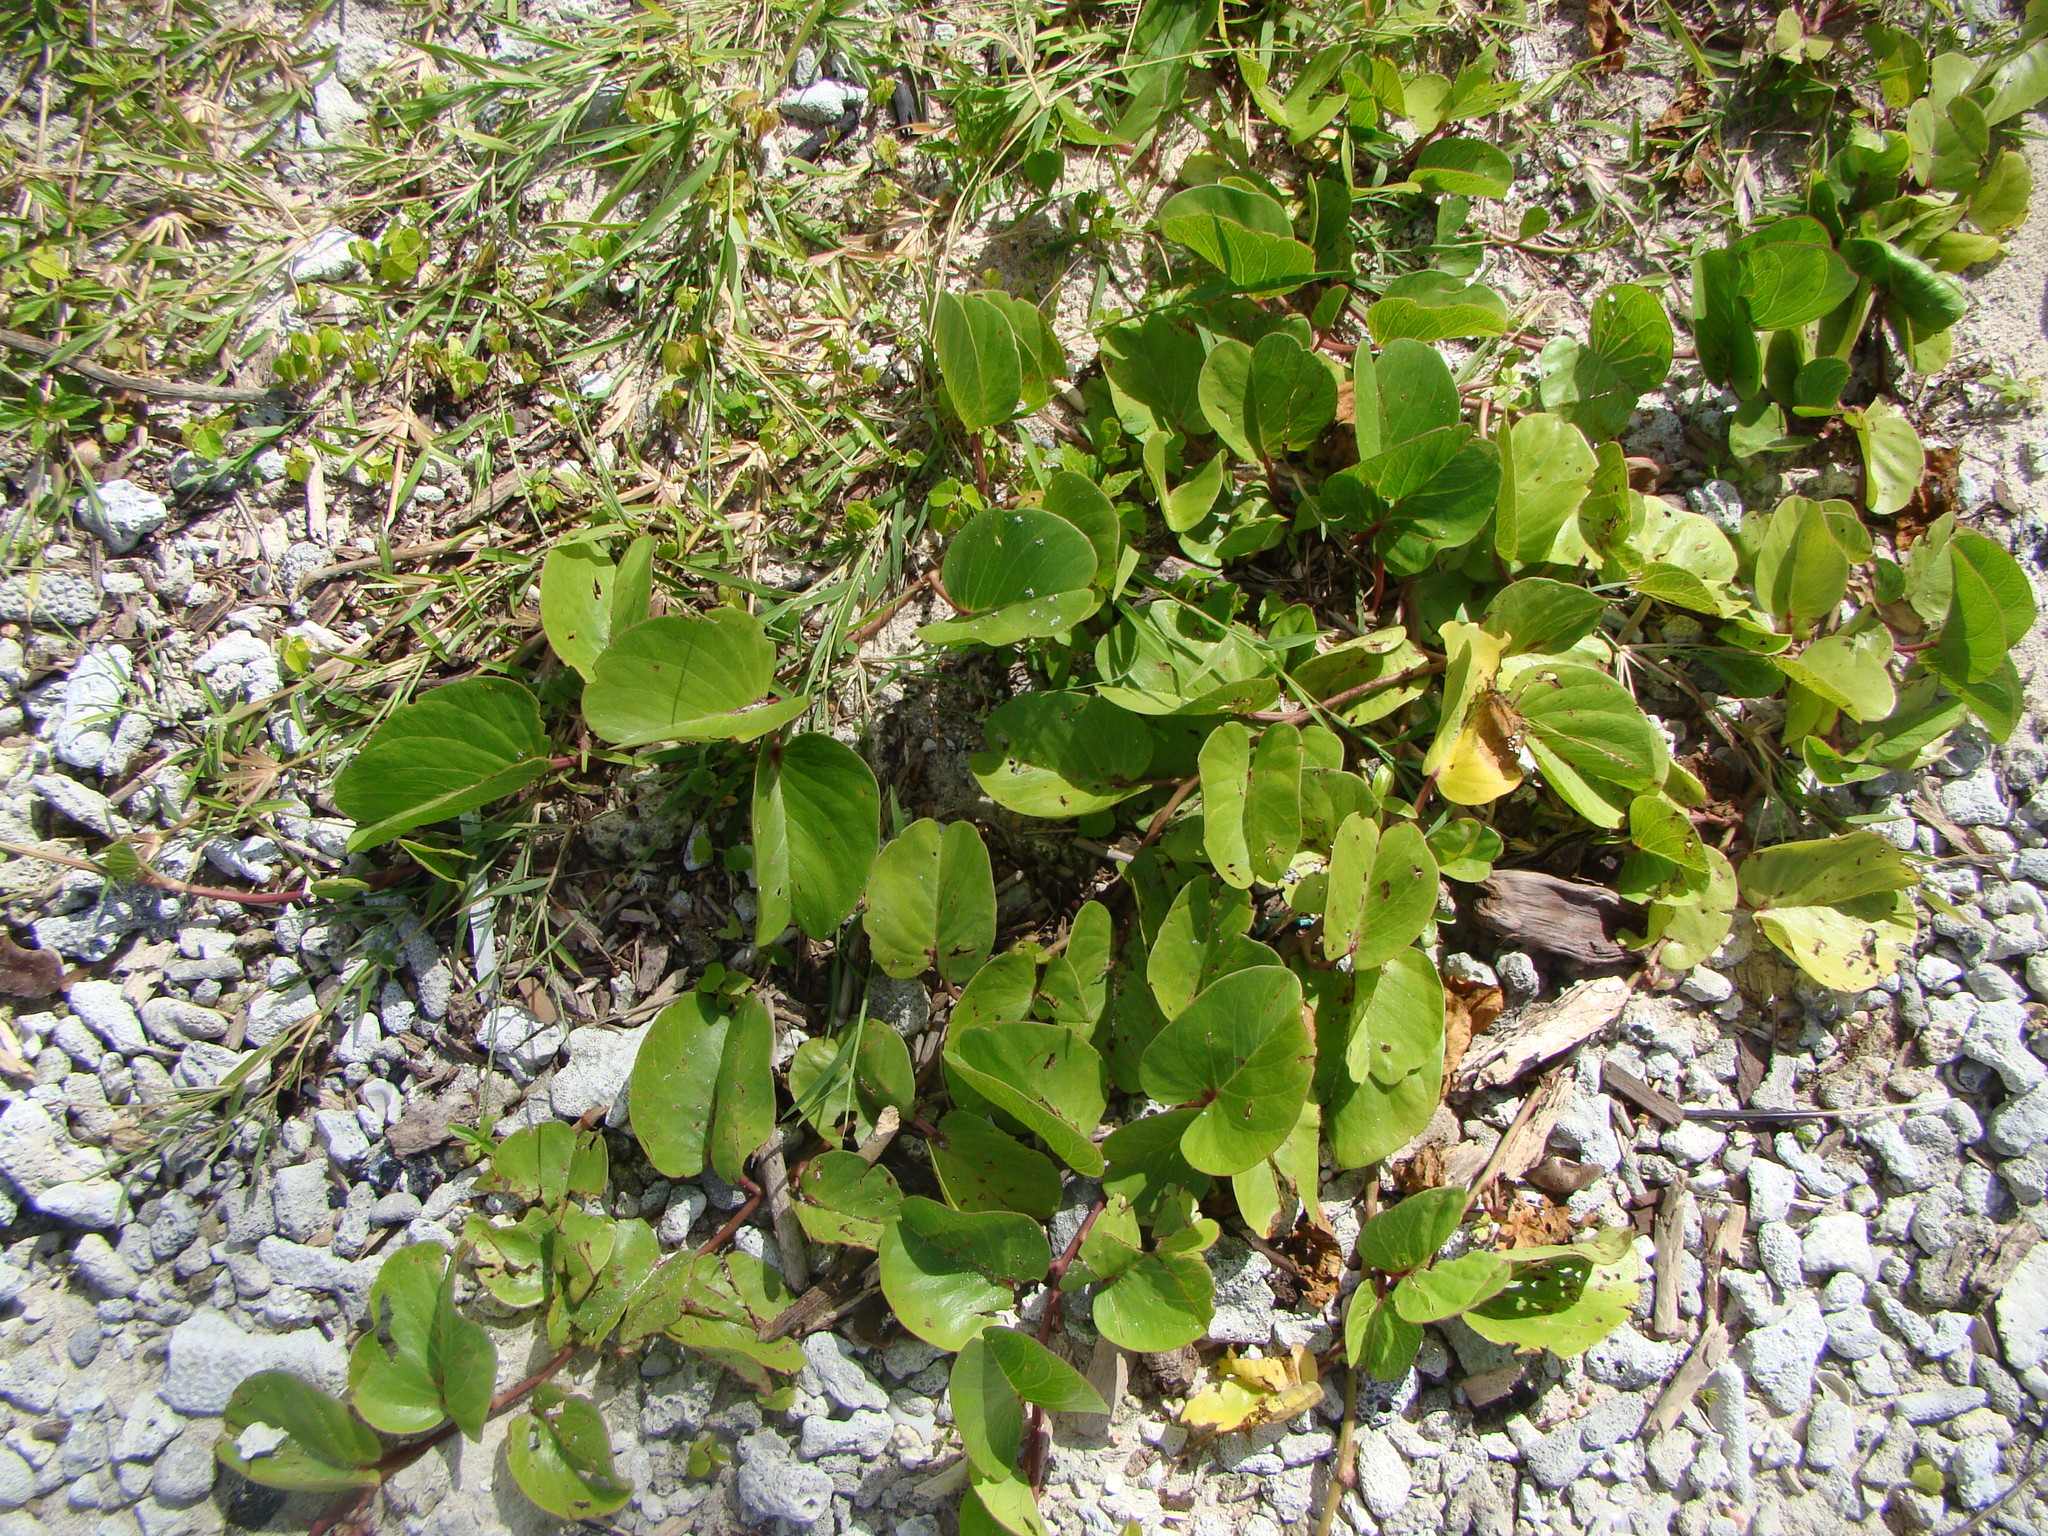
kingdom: Plantae
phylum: Tracheophyta
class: Magnoliopsida
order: Solanales
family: Convolvulaceae
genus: Ipomoea
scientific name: Ipomoea pes-caprae
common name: Beach morning glory
